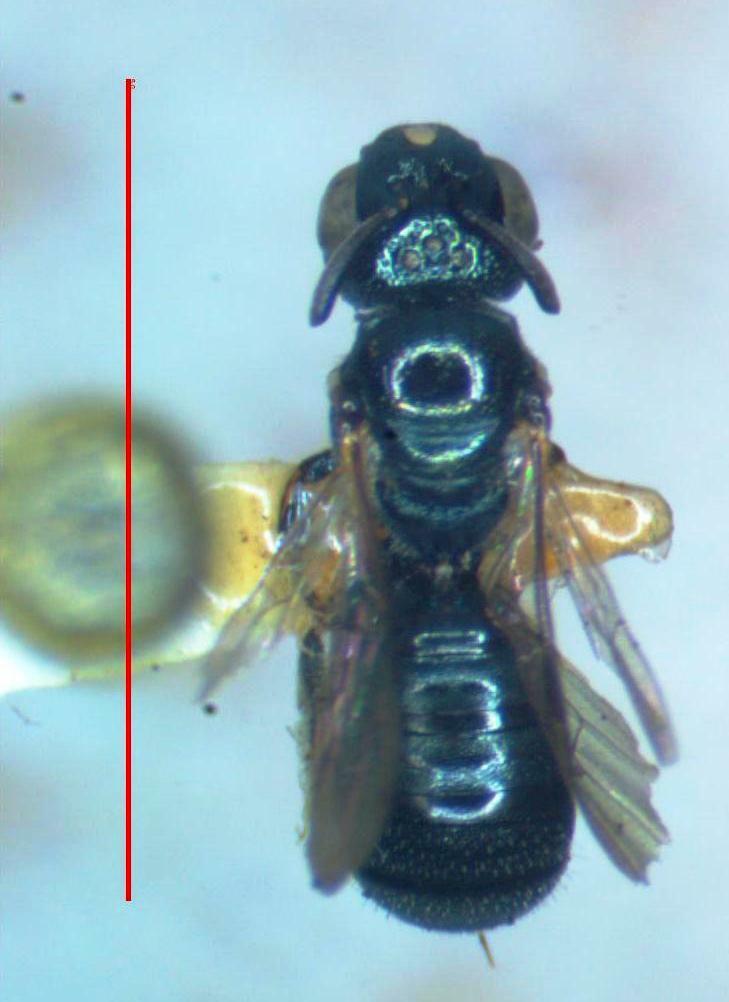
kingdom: Animalia
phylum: Arthropoda
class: Insecta
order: Hymenoptera
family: Apidae
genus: Zadontomerus
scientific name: Zadontomerus
